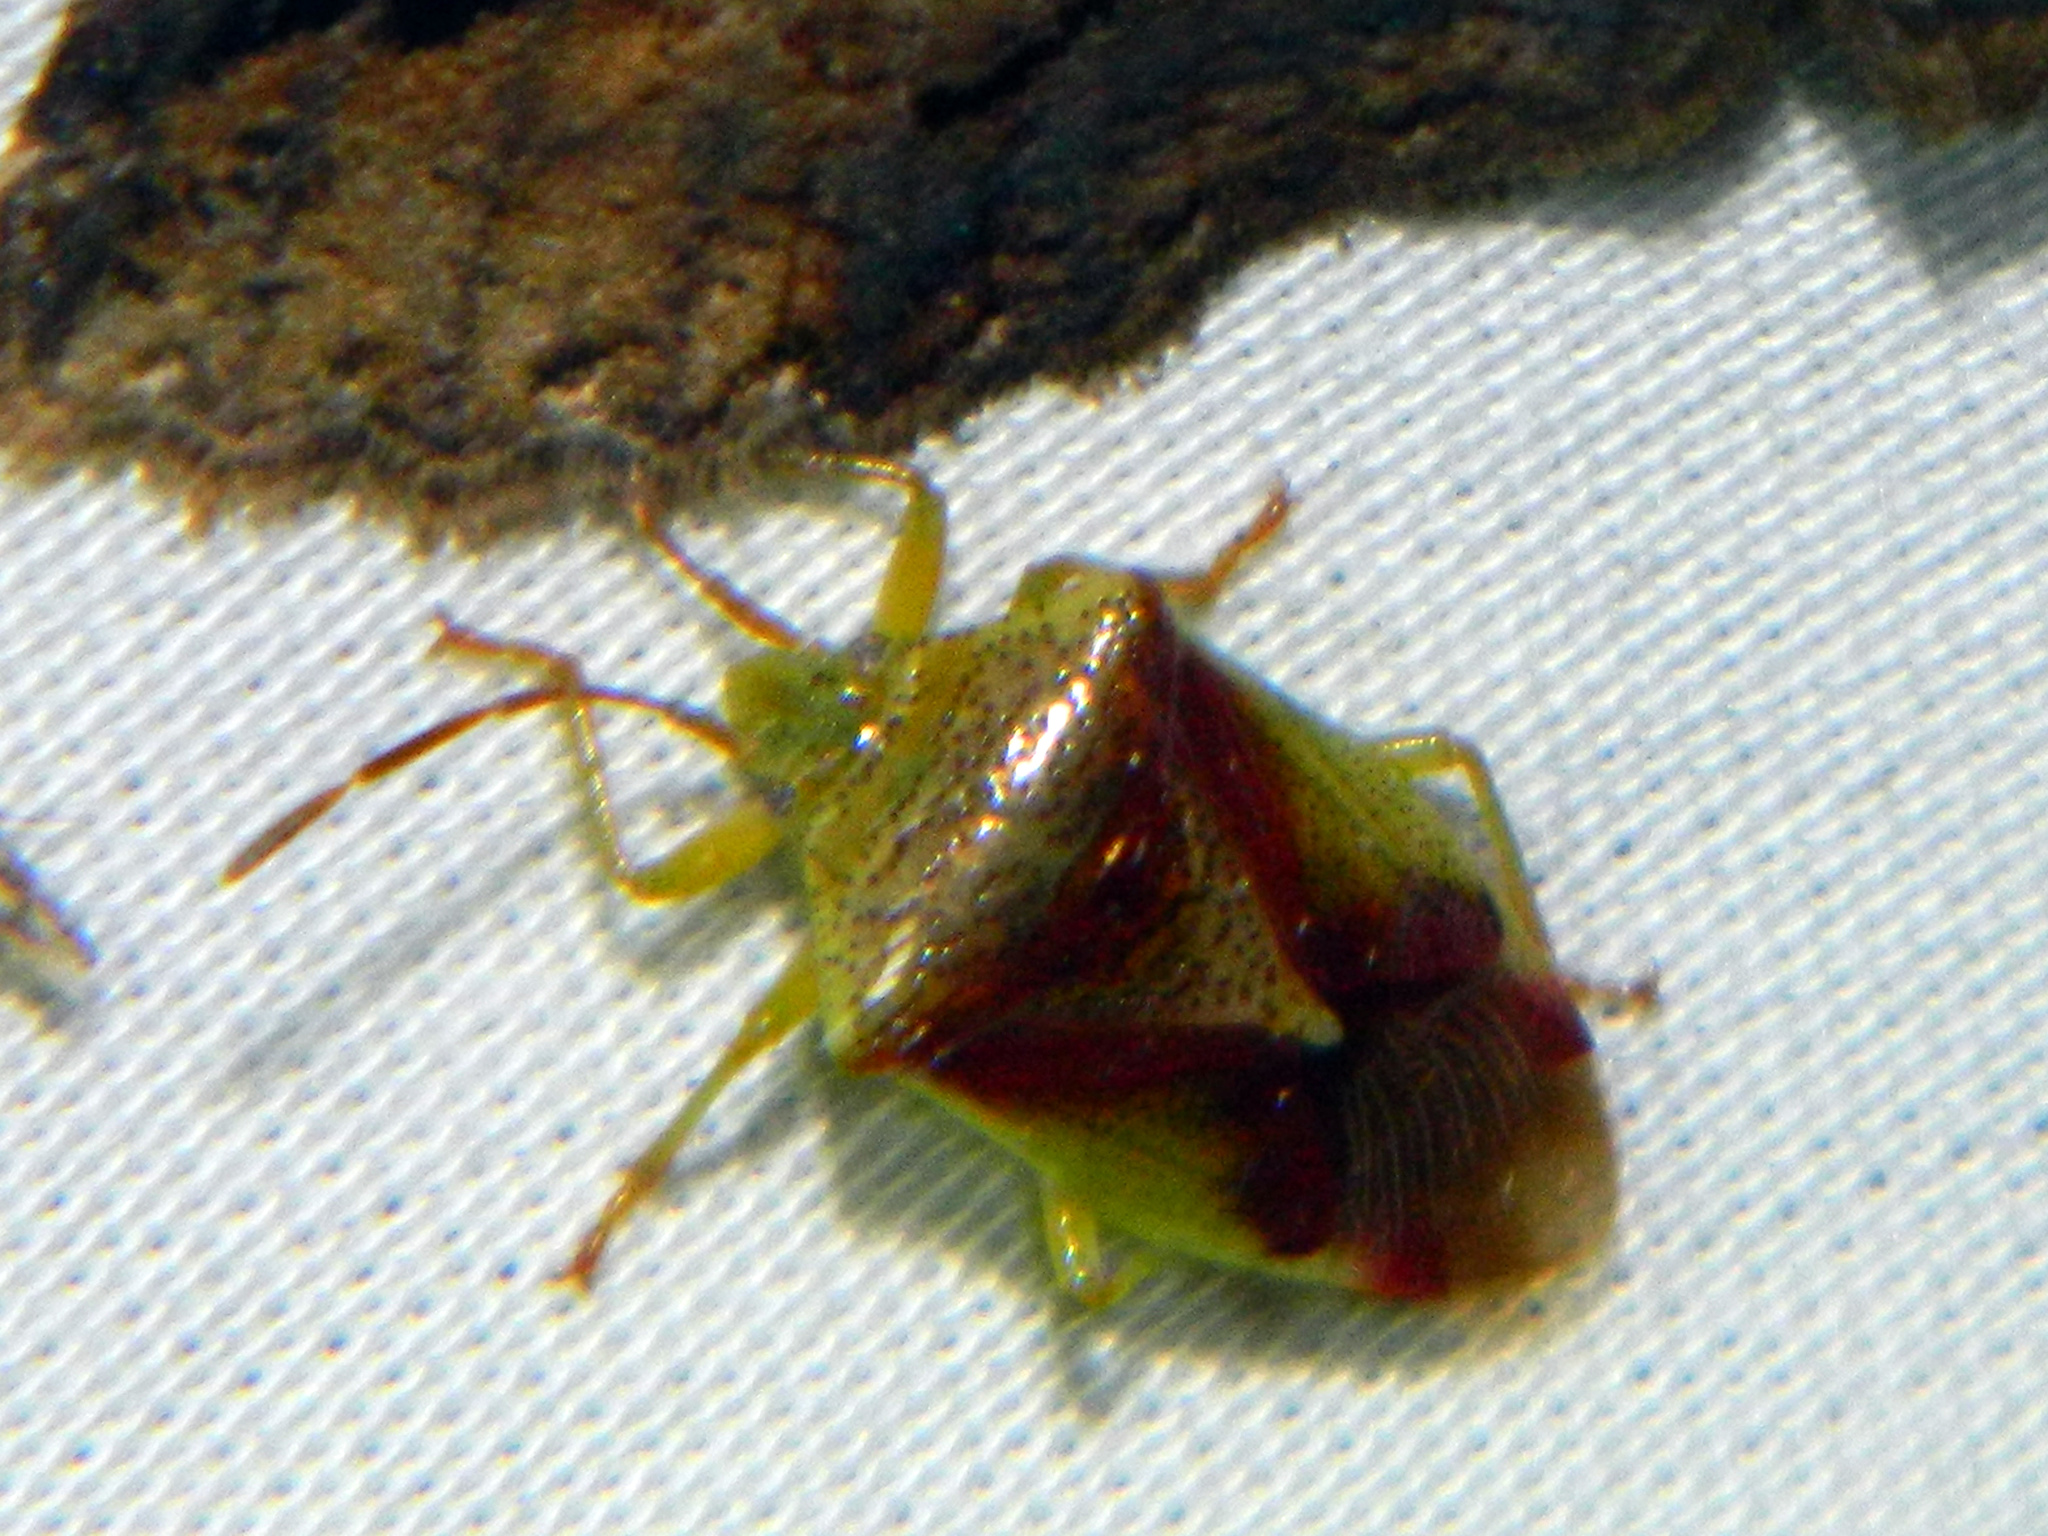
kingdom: Animalia
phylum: Arthropoda
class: Insecta
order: Hemiptera
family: Acanthosomatidae
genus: Elasmostethus
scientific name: Elasmostethus cruciatus
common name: Red-cross shield bug
